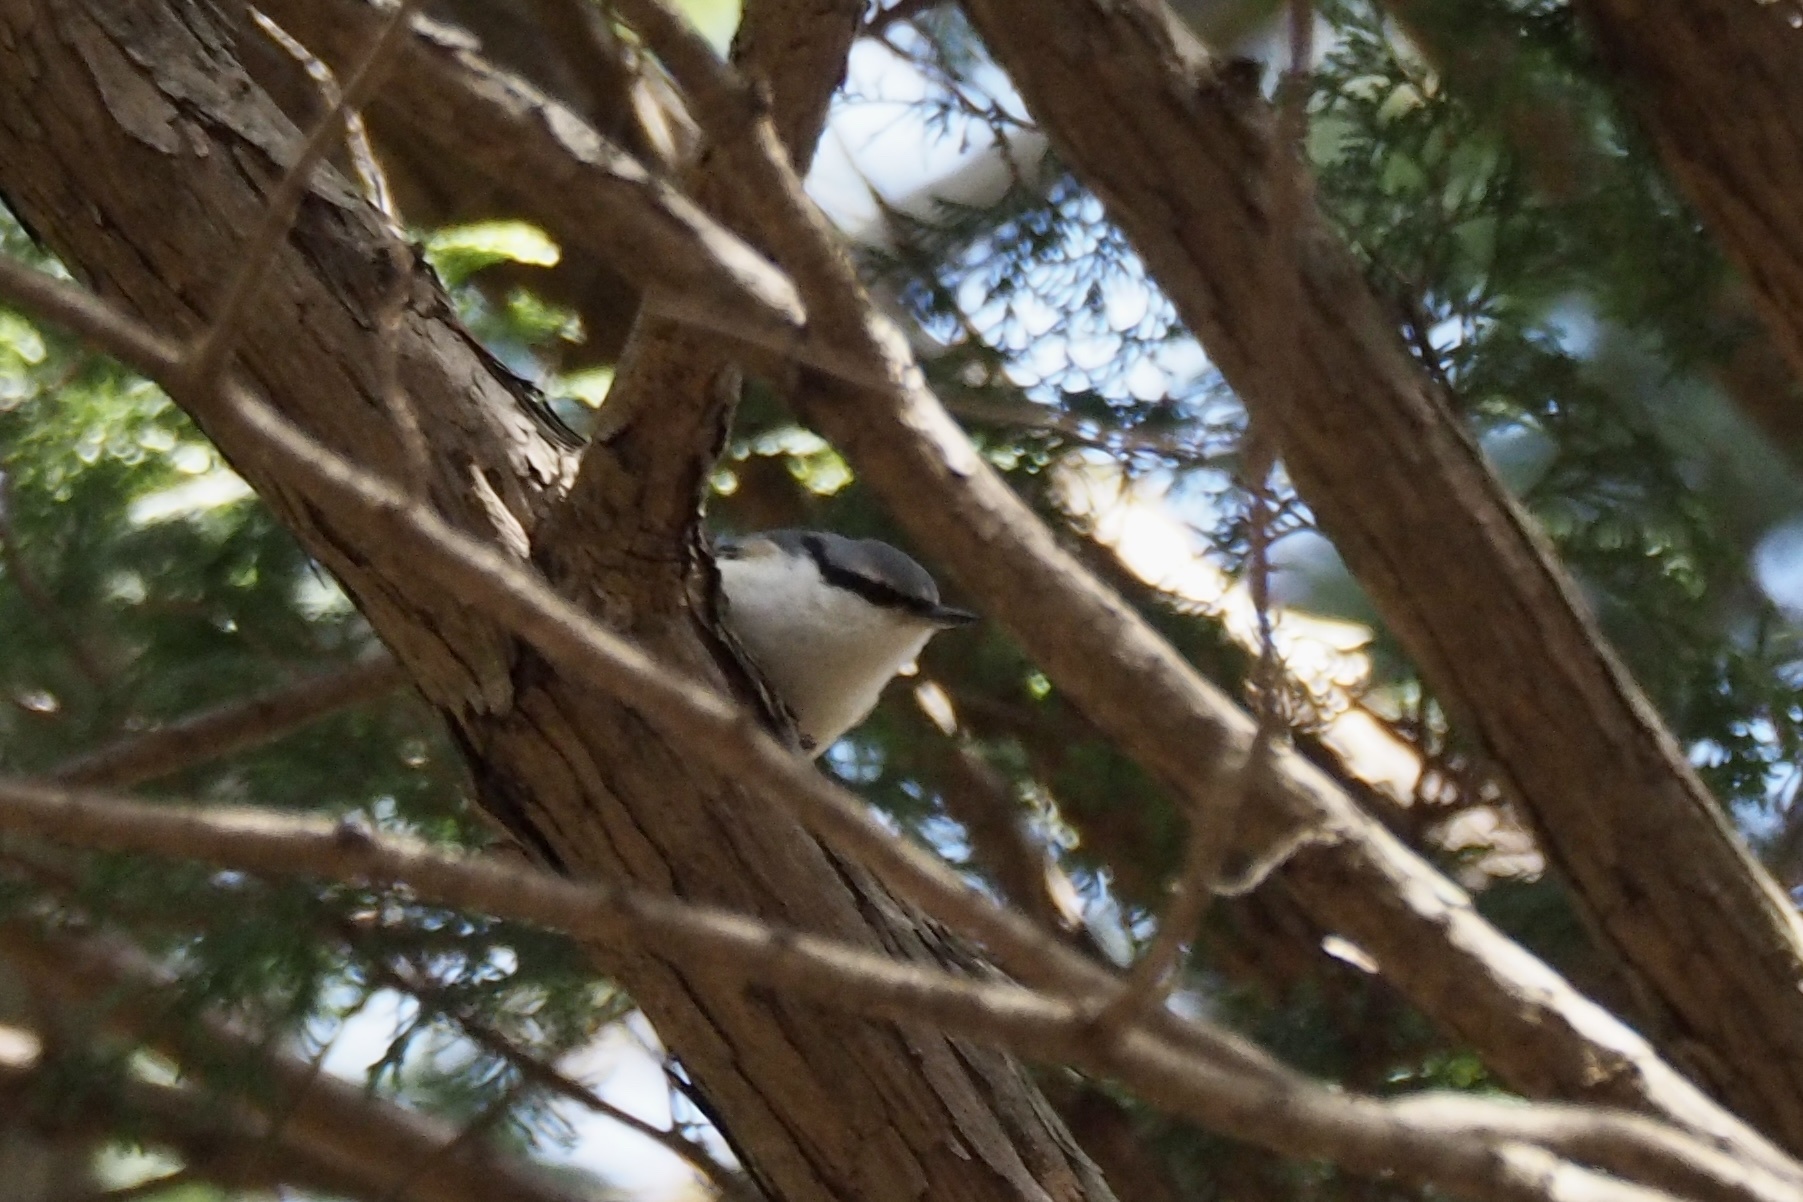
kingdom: Animalia
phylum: Chordata
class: Aves
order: Passeriformes
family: Sittidae
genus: Sitta
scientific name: Sitta europaea
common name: Eurasian nuthatch
